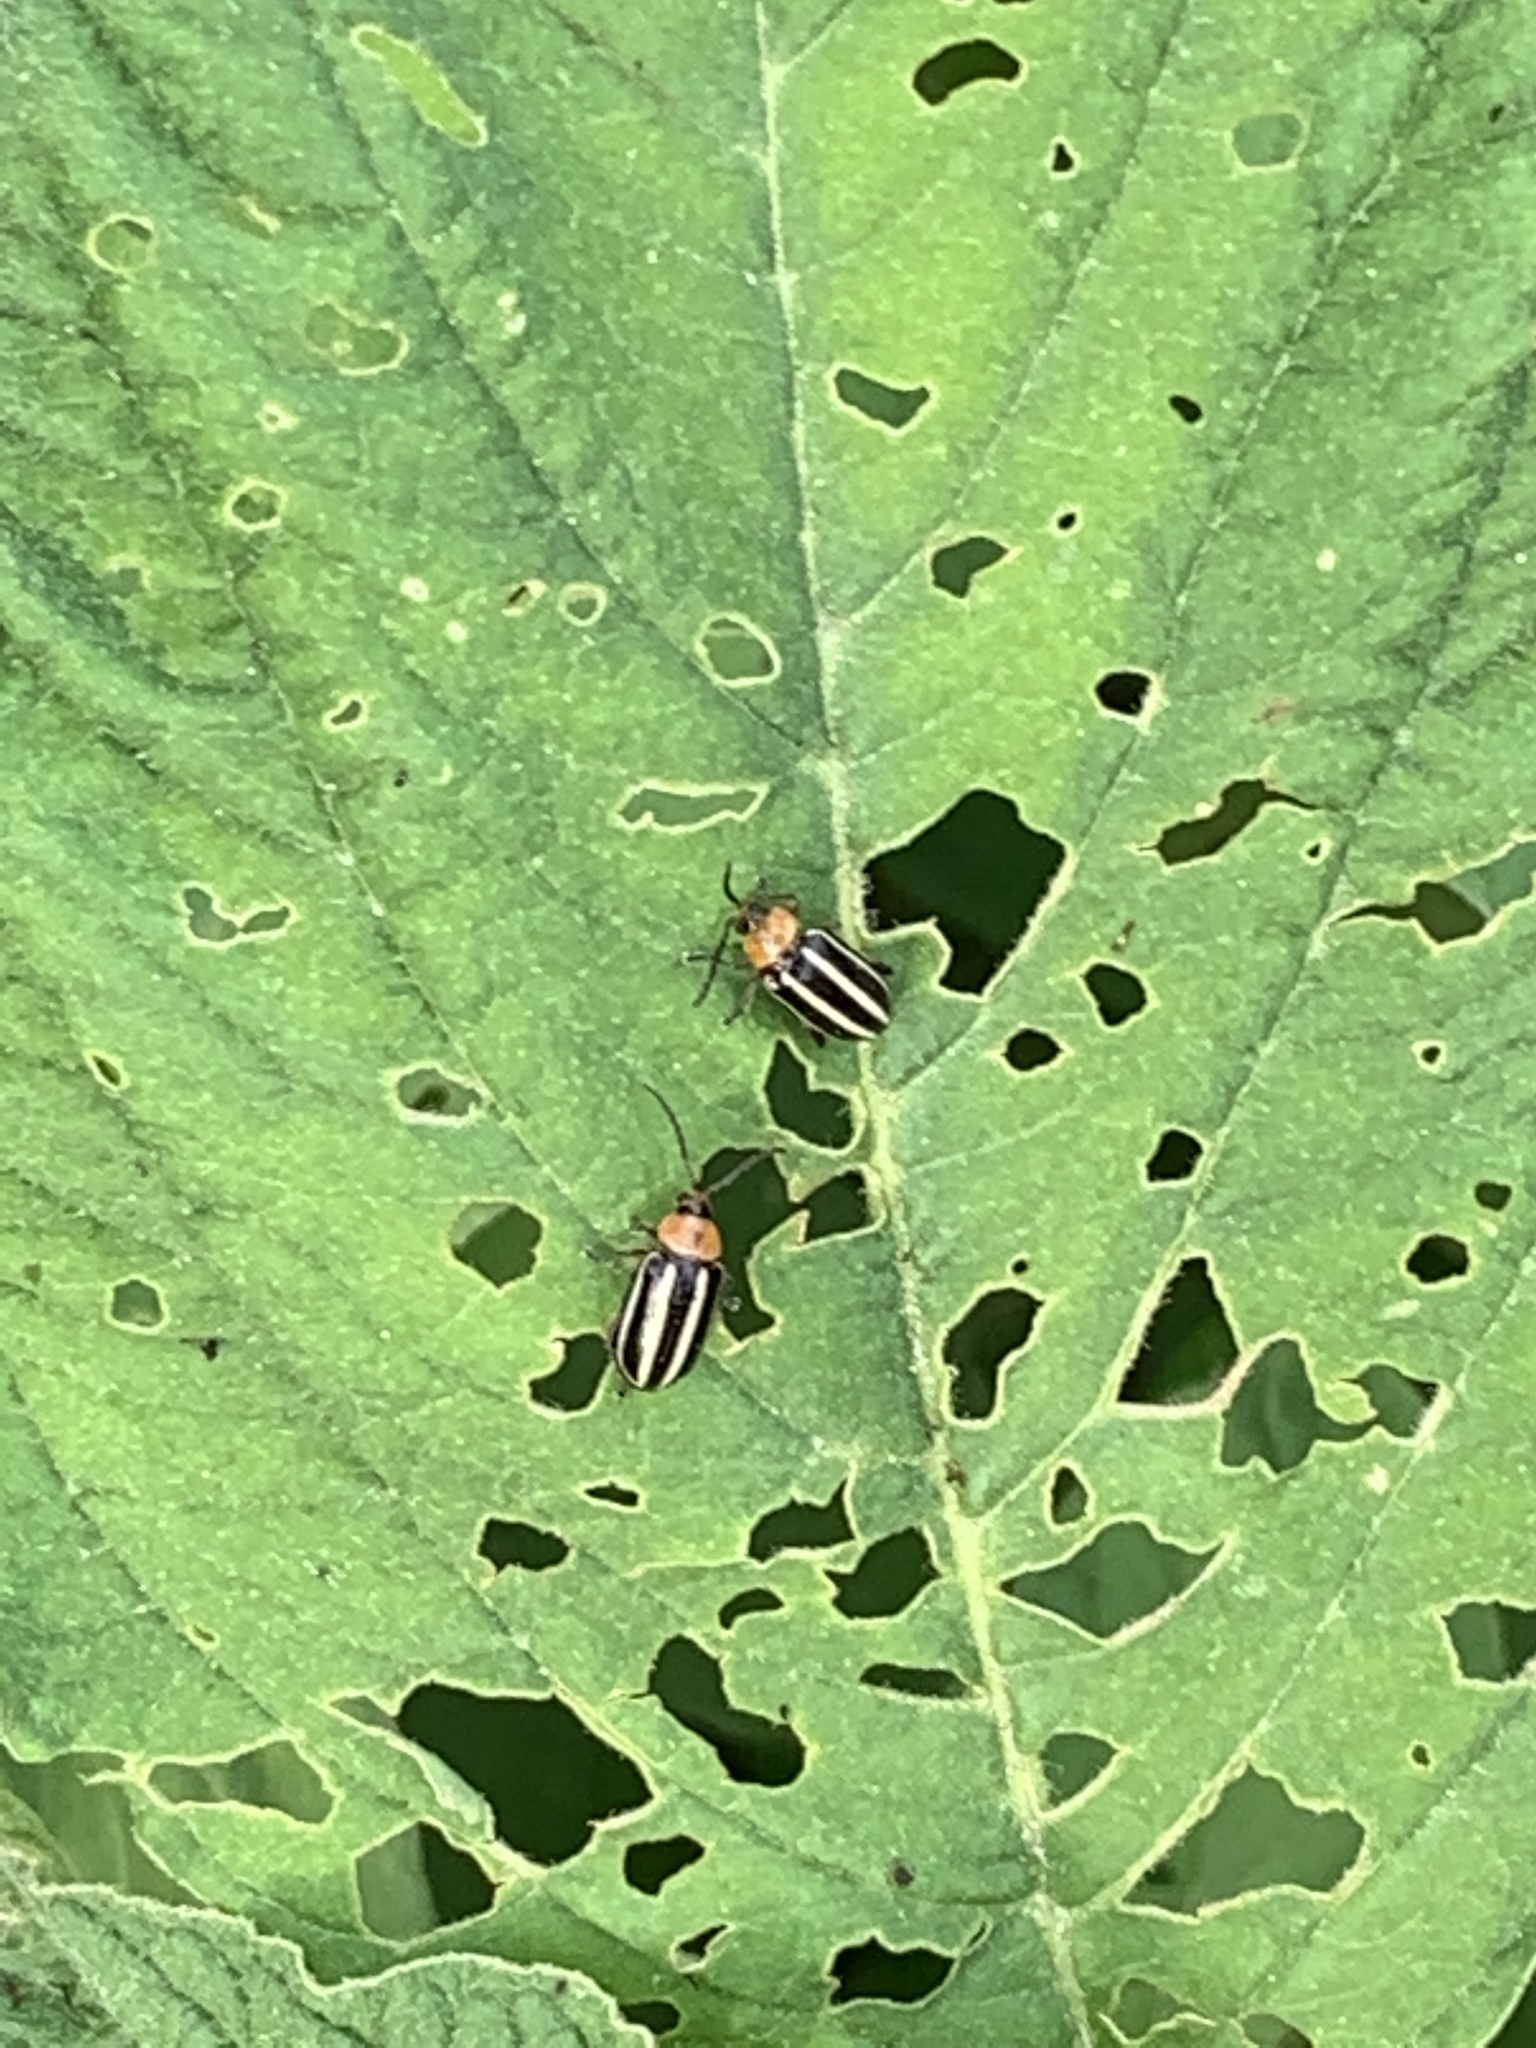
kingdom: Animalia
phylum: Arthropoda
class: Insecta
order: Coleoptera
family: Chrysomelidae
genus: Disonycha
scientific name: Disonycha glabrata
